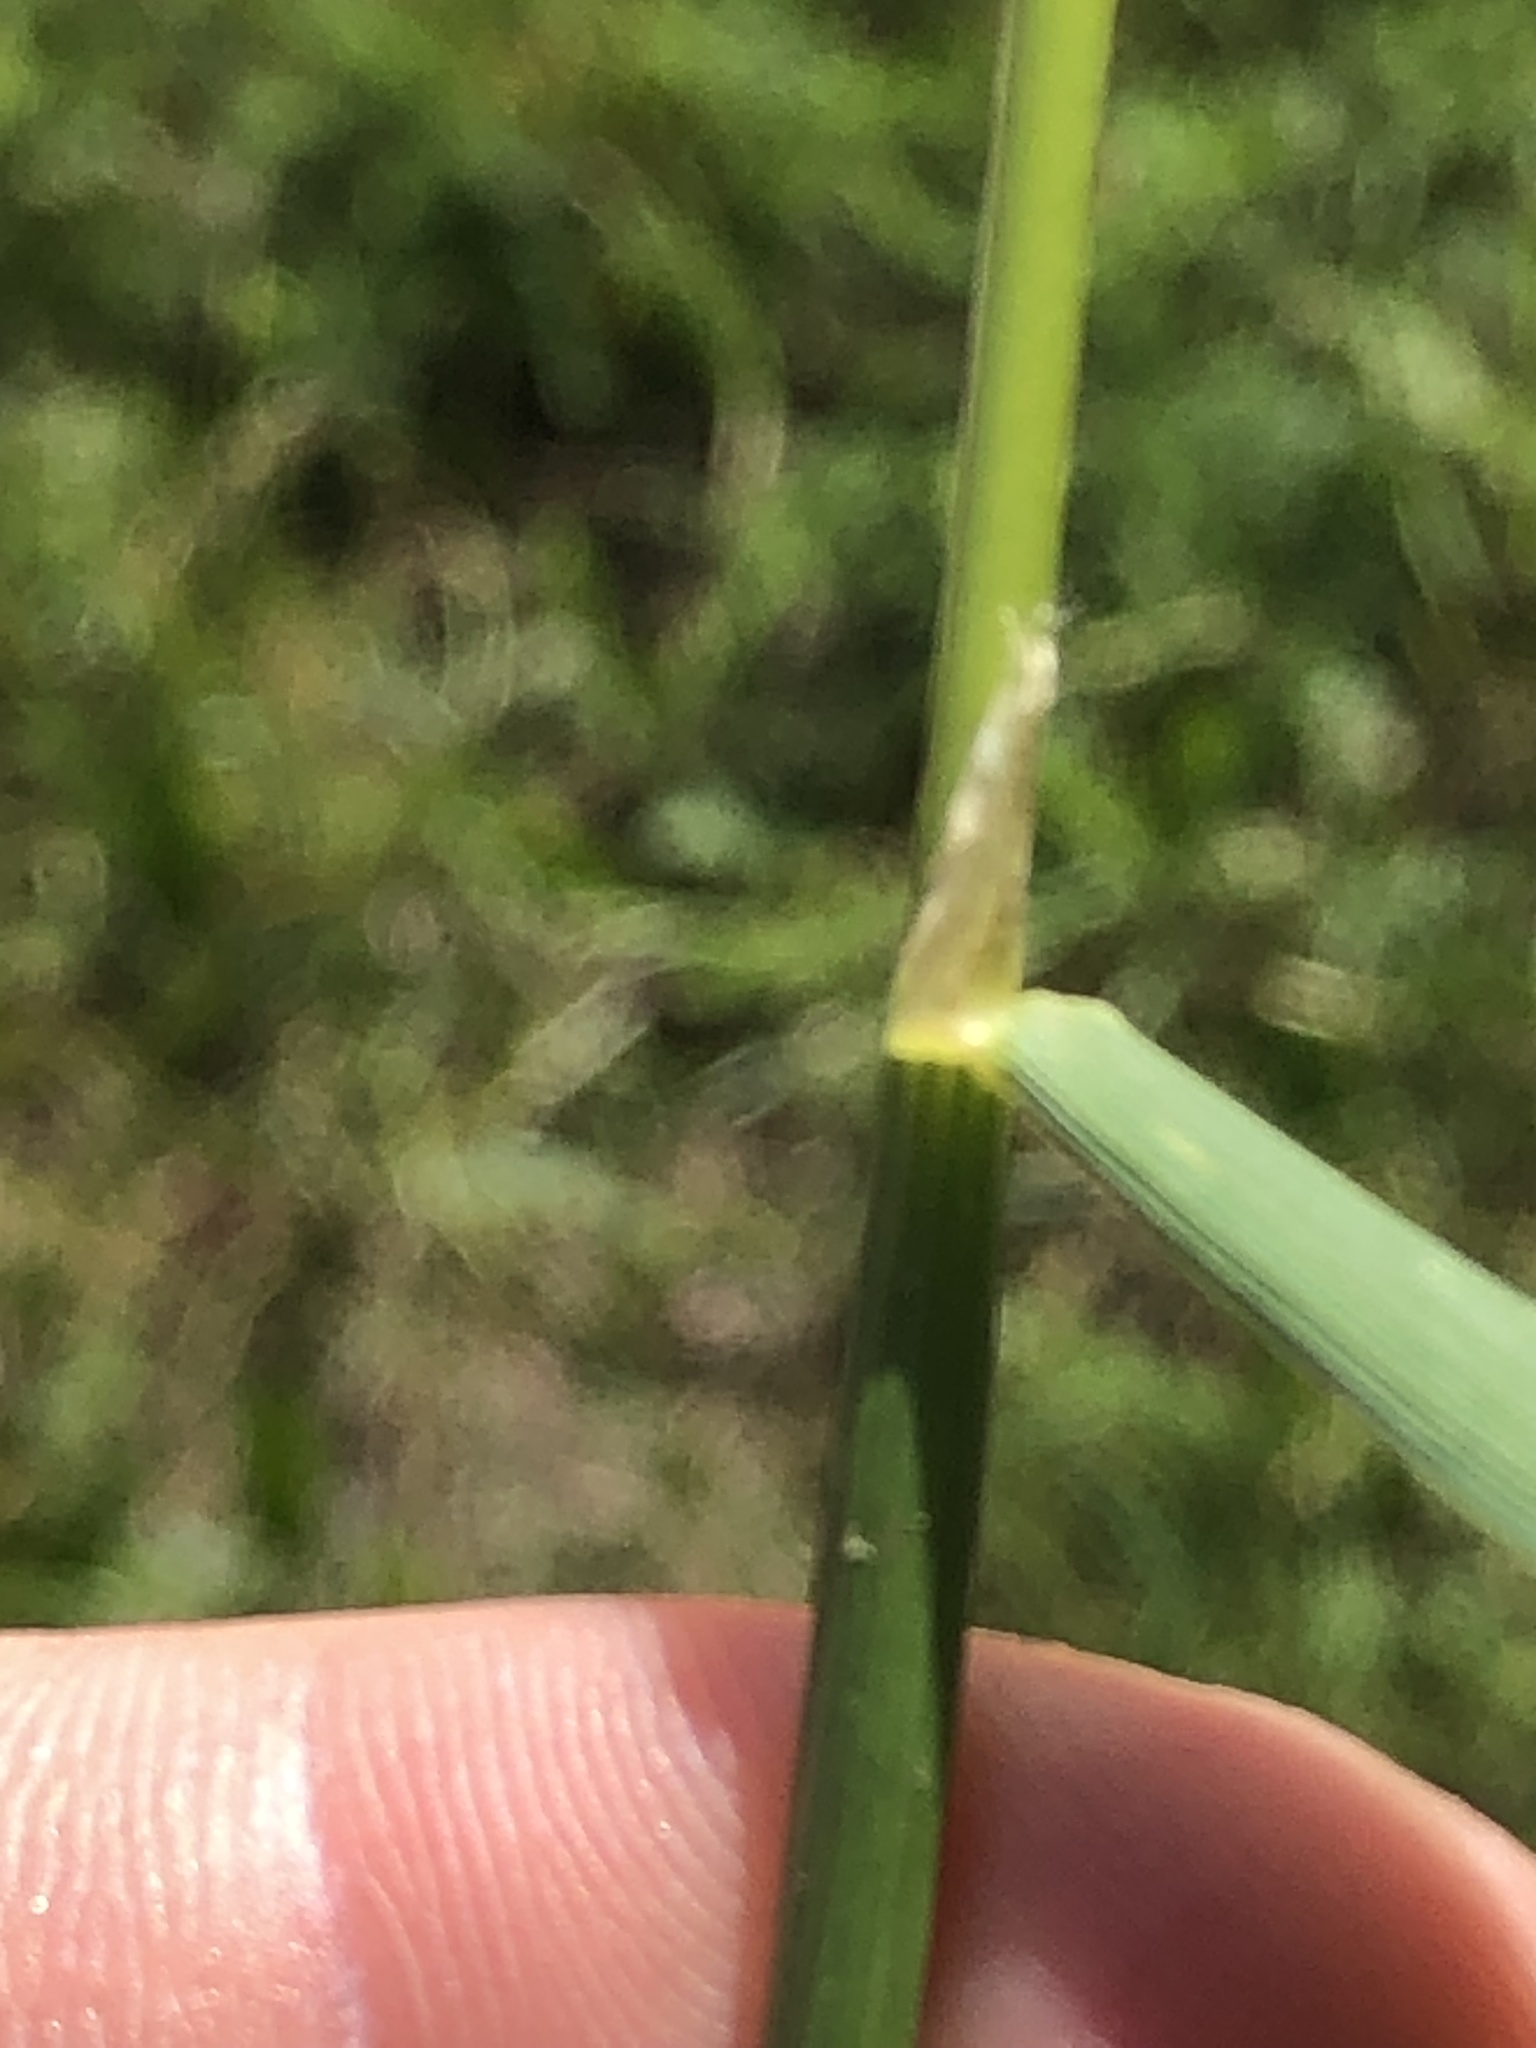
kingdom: Plantae
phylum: Tracheophyta
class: Liliopsida
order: Poales
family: Poaceae
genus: Apera
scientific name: Apera spica-venti
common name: Loose silky-bent
